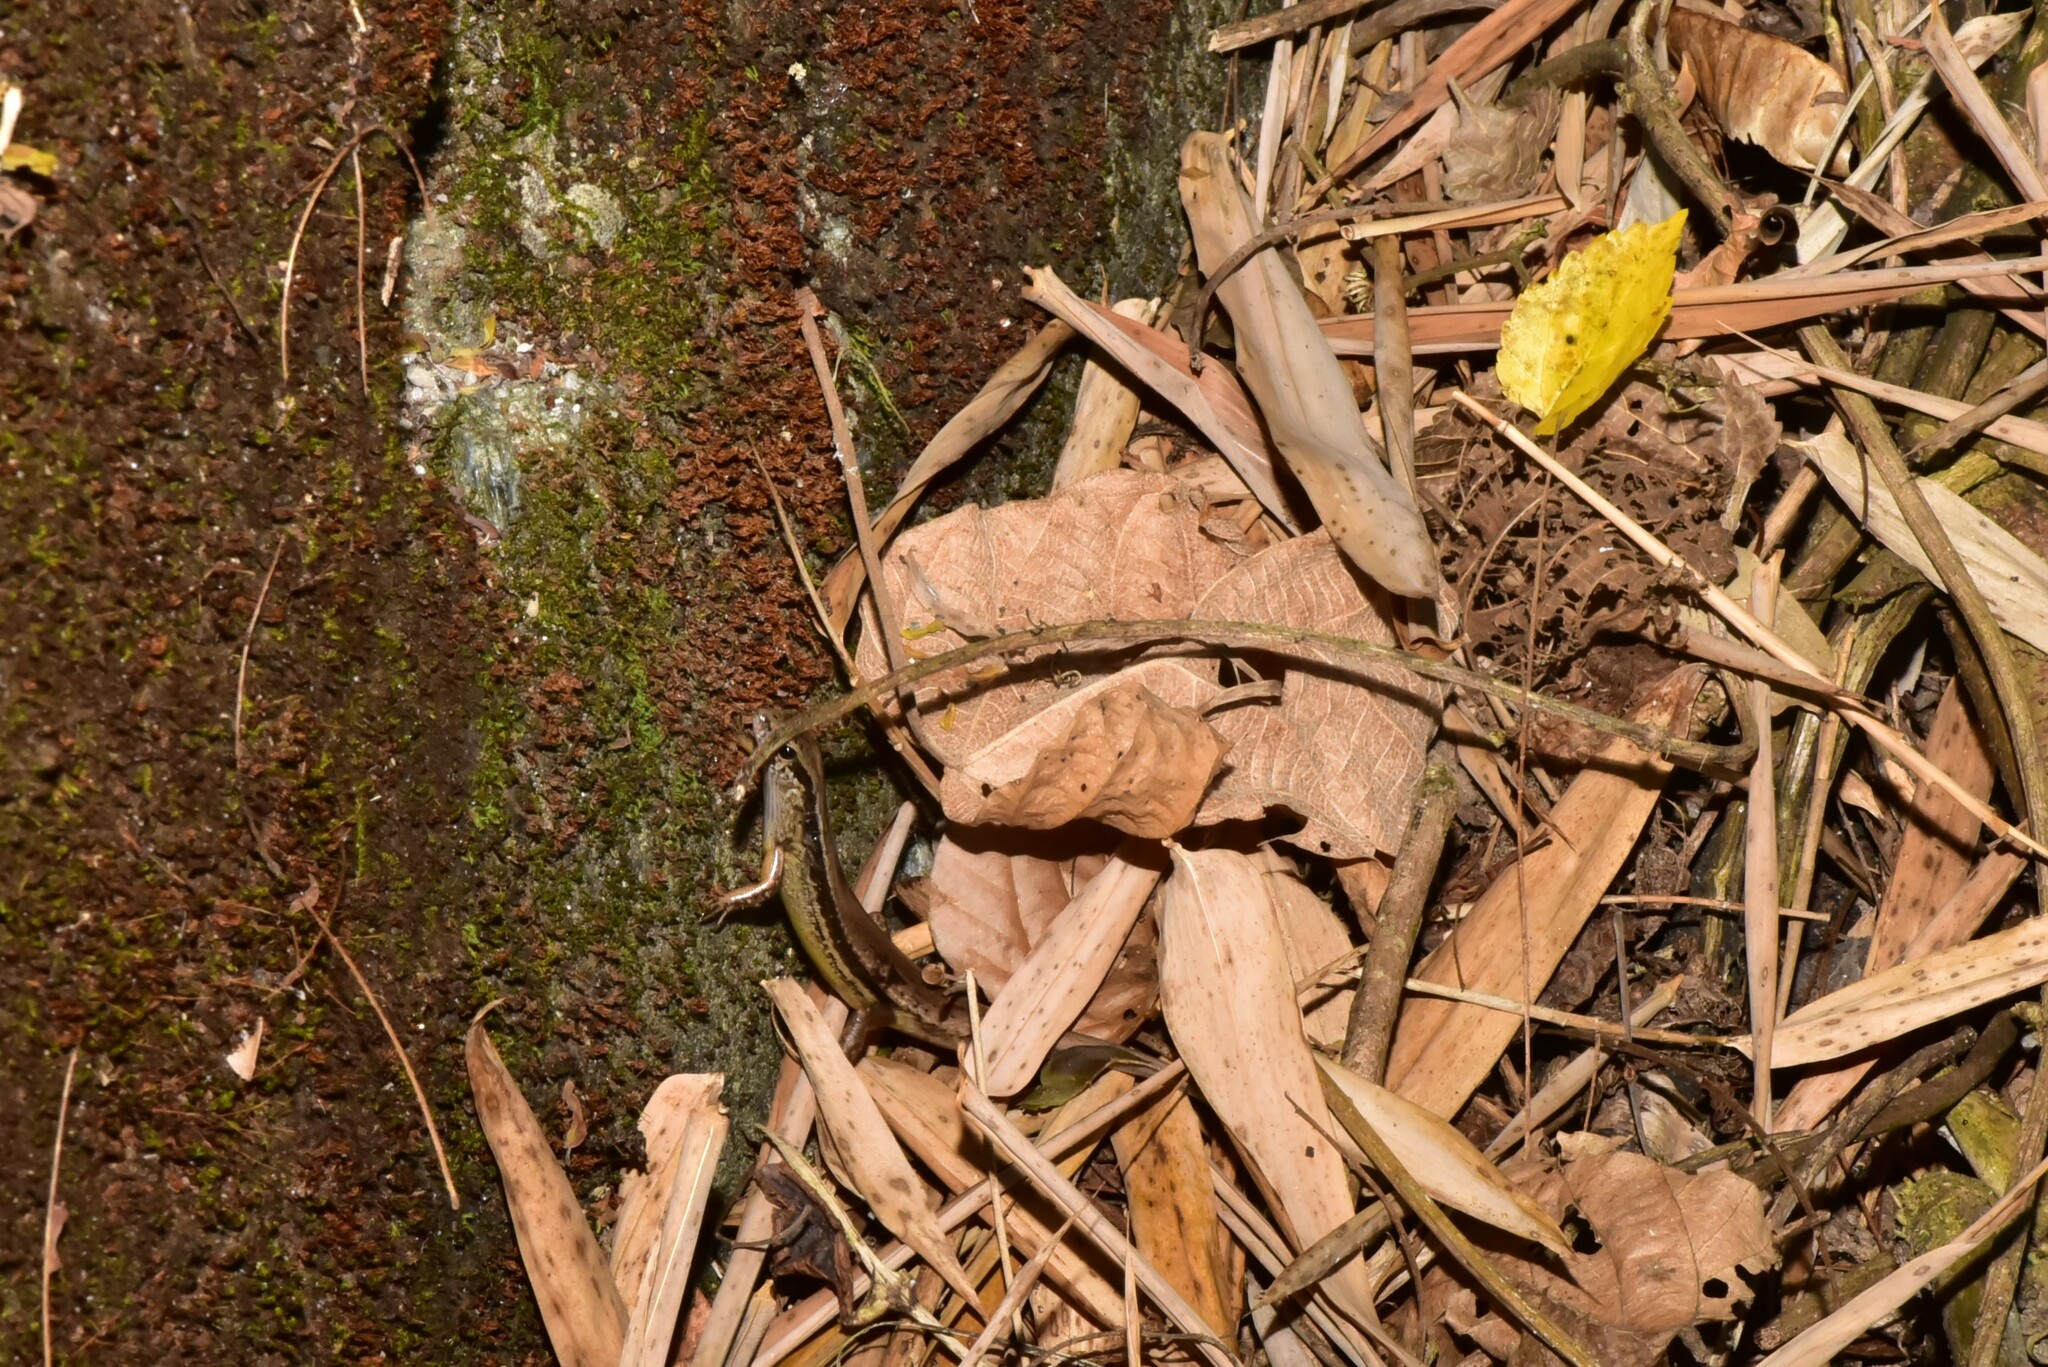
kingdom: Animalia
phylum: Chordata
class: Squamata
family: Scincidae
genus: Sphenomorphus
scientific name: Sphenomorphus indicus
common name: Himalayan forest skink
